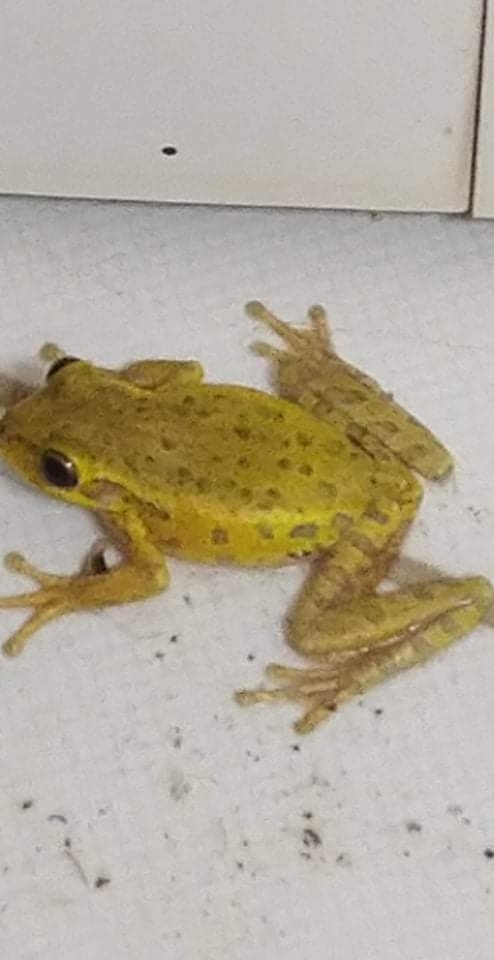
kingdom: Animalia
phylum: Chordata
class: Amphibia
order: Anura
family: Hylidae
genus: Osteopilus
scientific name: Osteopilus septentrionalis
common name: Cuban treefrog
